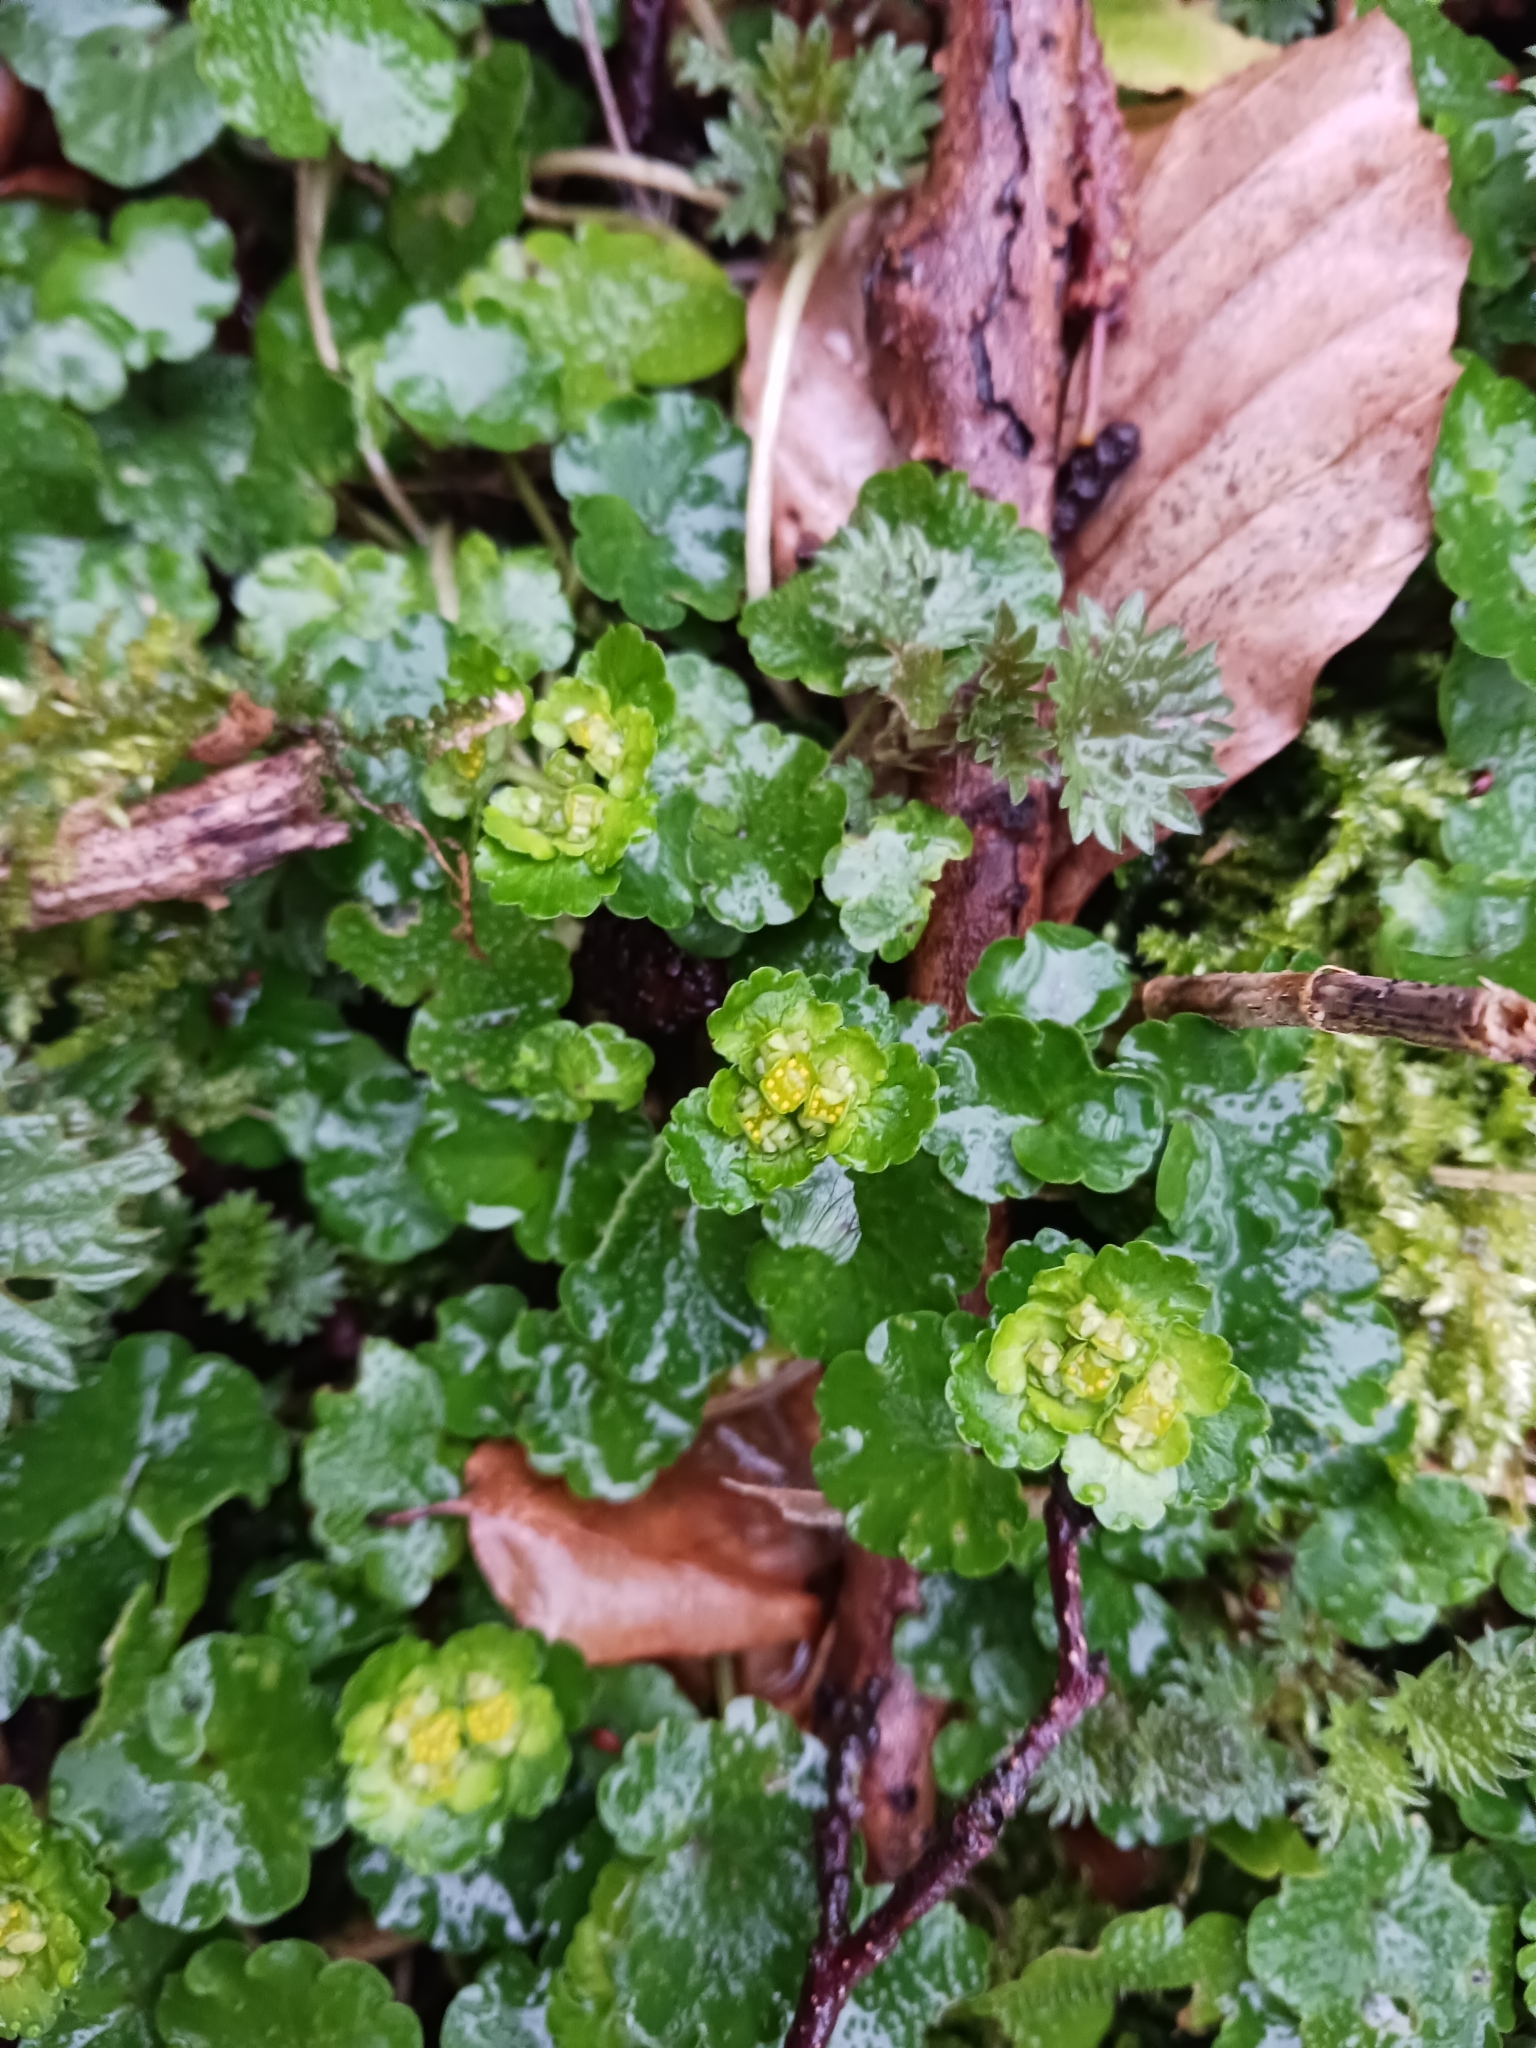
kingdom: Plantae
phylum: Tracheophyta
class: Magnoliopsida
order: Saxifragales
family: Saxifragaceae
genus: Chrysosplenium
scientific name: Chrysosplenium alternifolium
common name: Alternate-leaved golden-saxifrage
